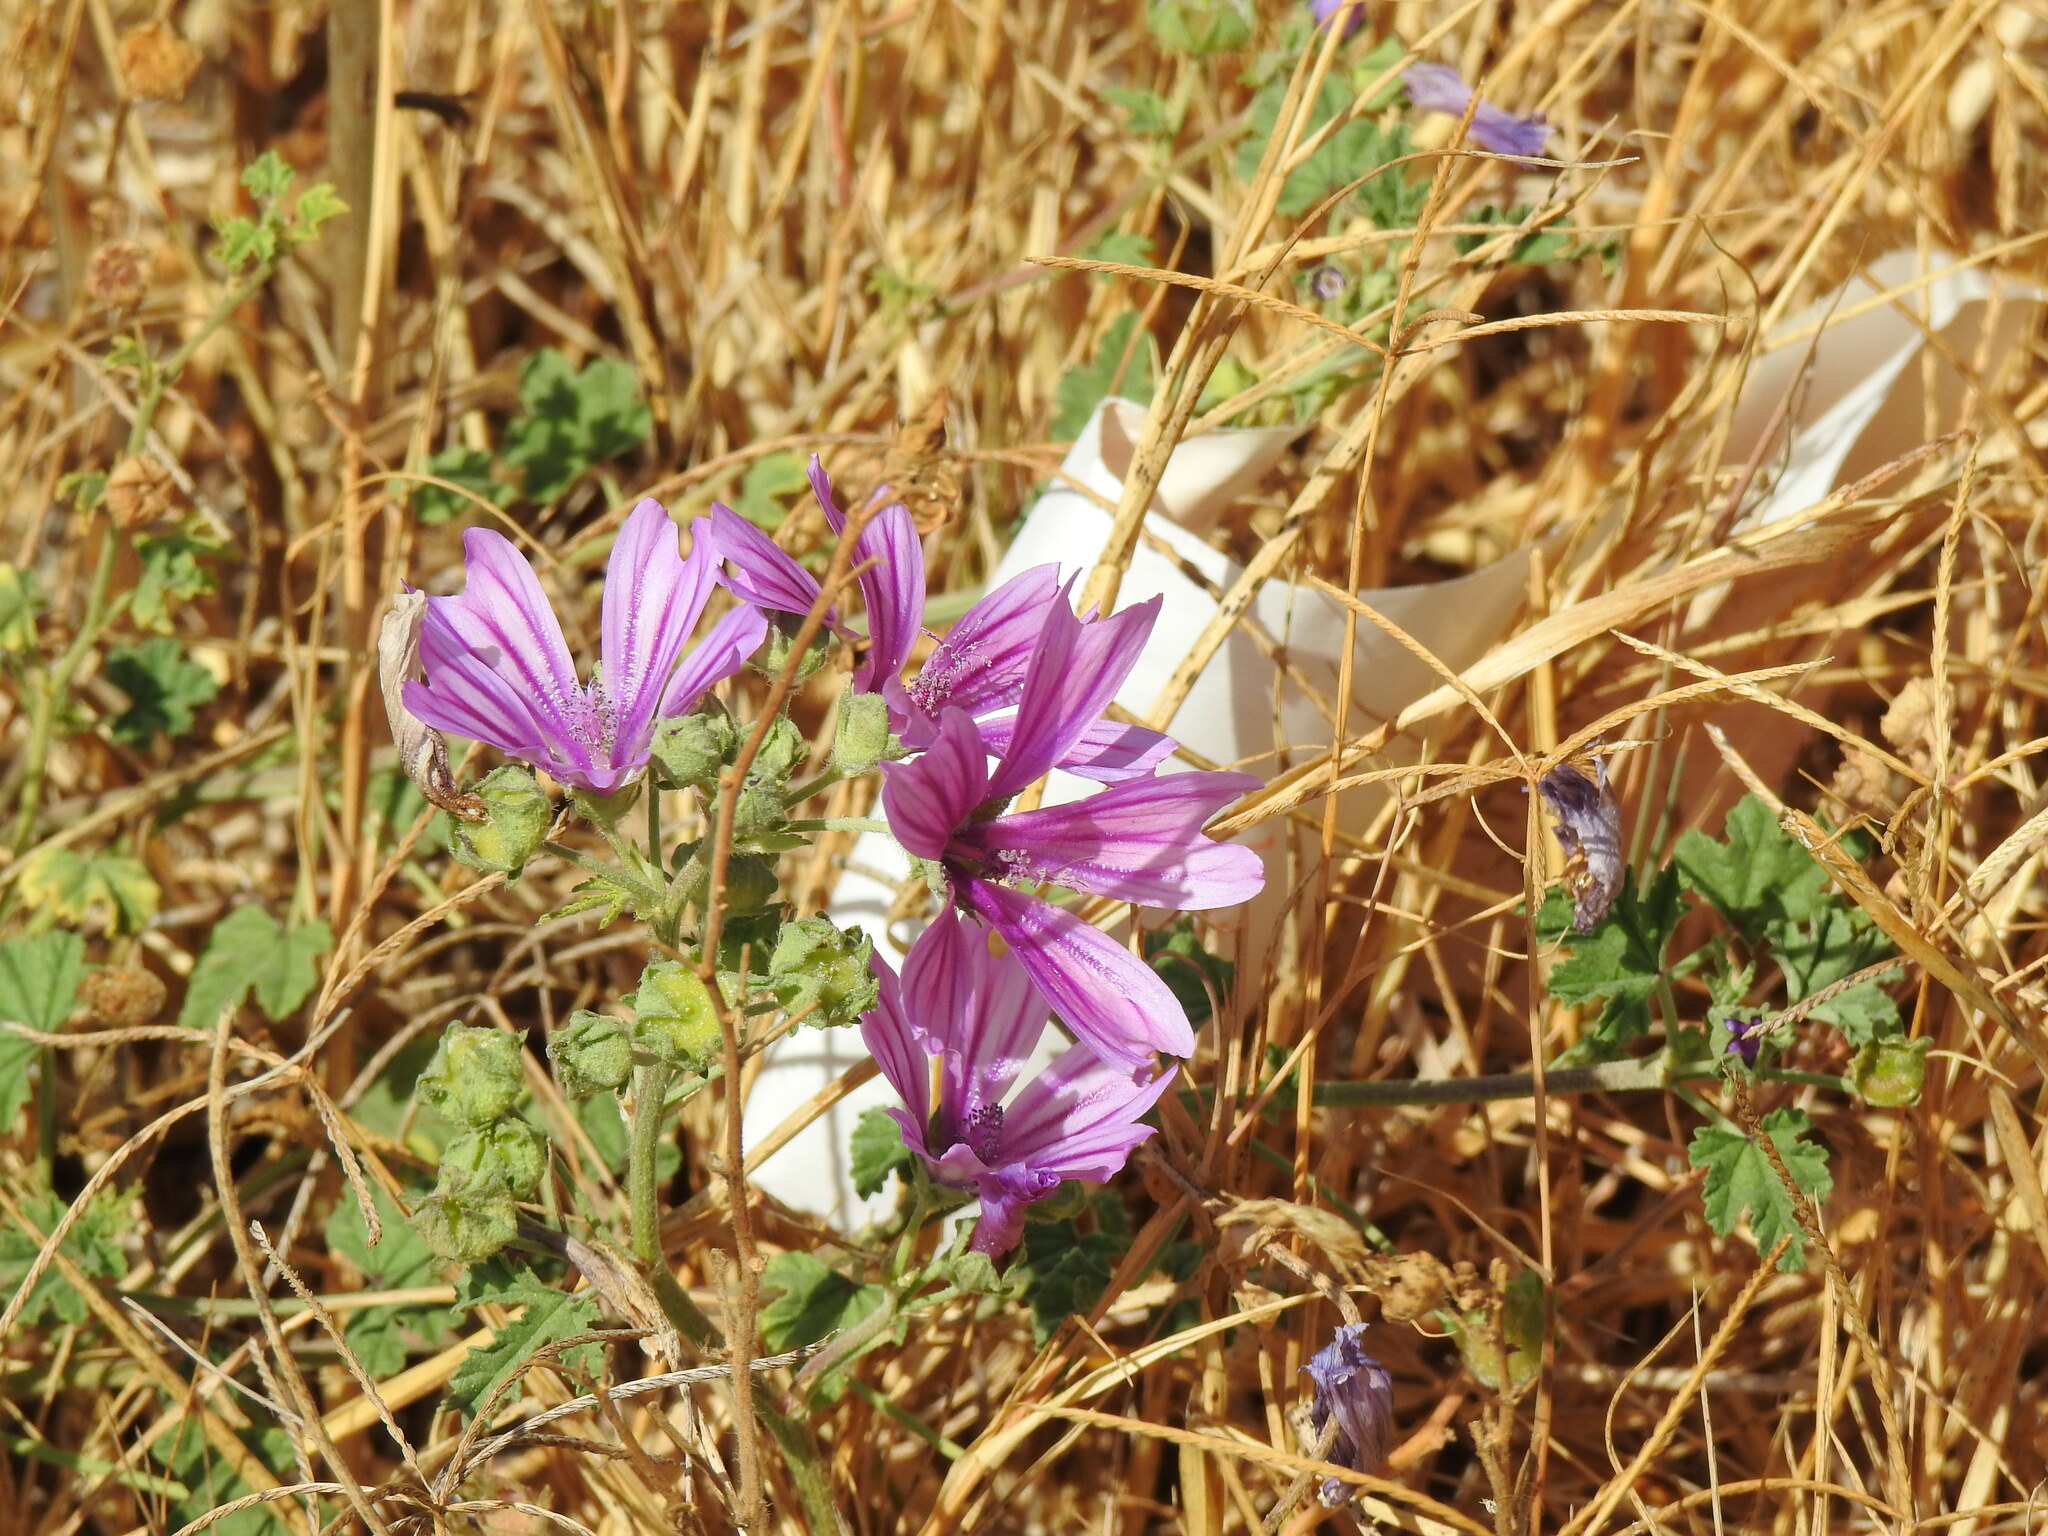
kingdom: Plantae
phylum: Tracheophyta
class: Magnoliopsida
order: Malvales
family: Malvaceae
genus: Malva
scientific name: Malva sylvestris
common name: Common mallow
